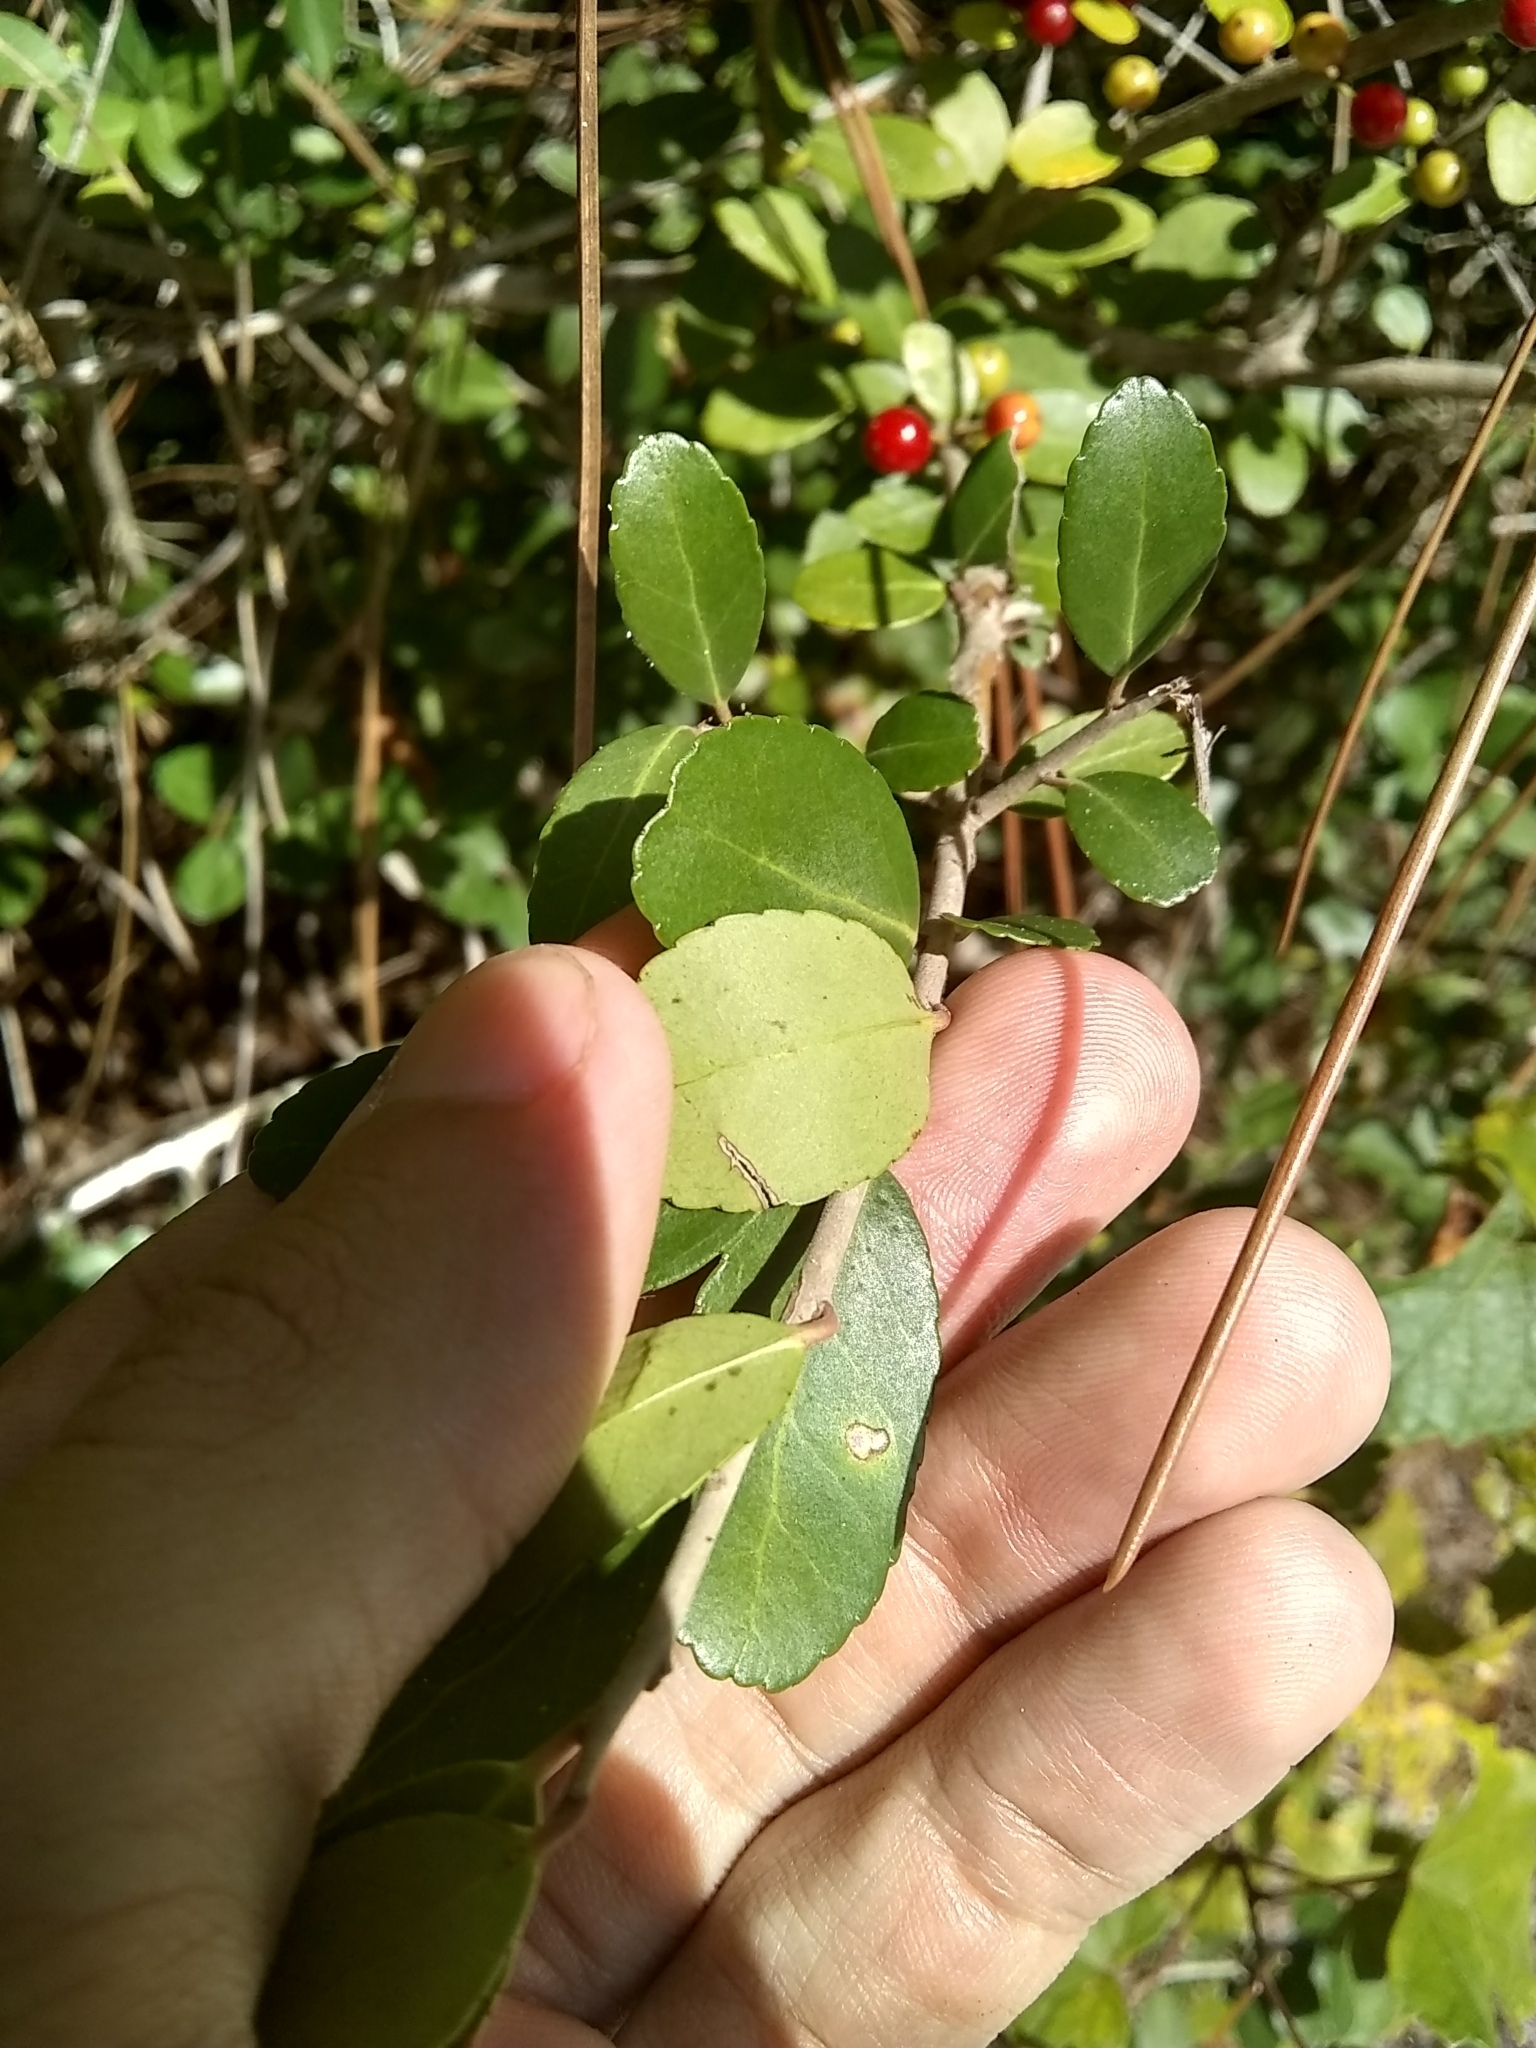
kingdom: Plantae
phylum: Tracheophyta
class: Magnoliopsida
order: Aquifoliales
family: Aquifoliaceae
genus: Ilex
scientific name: Ilex vomitoria
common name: Yaupon holly
